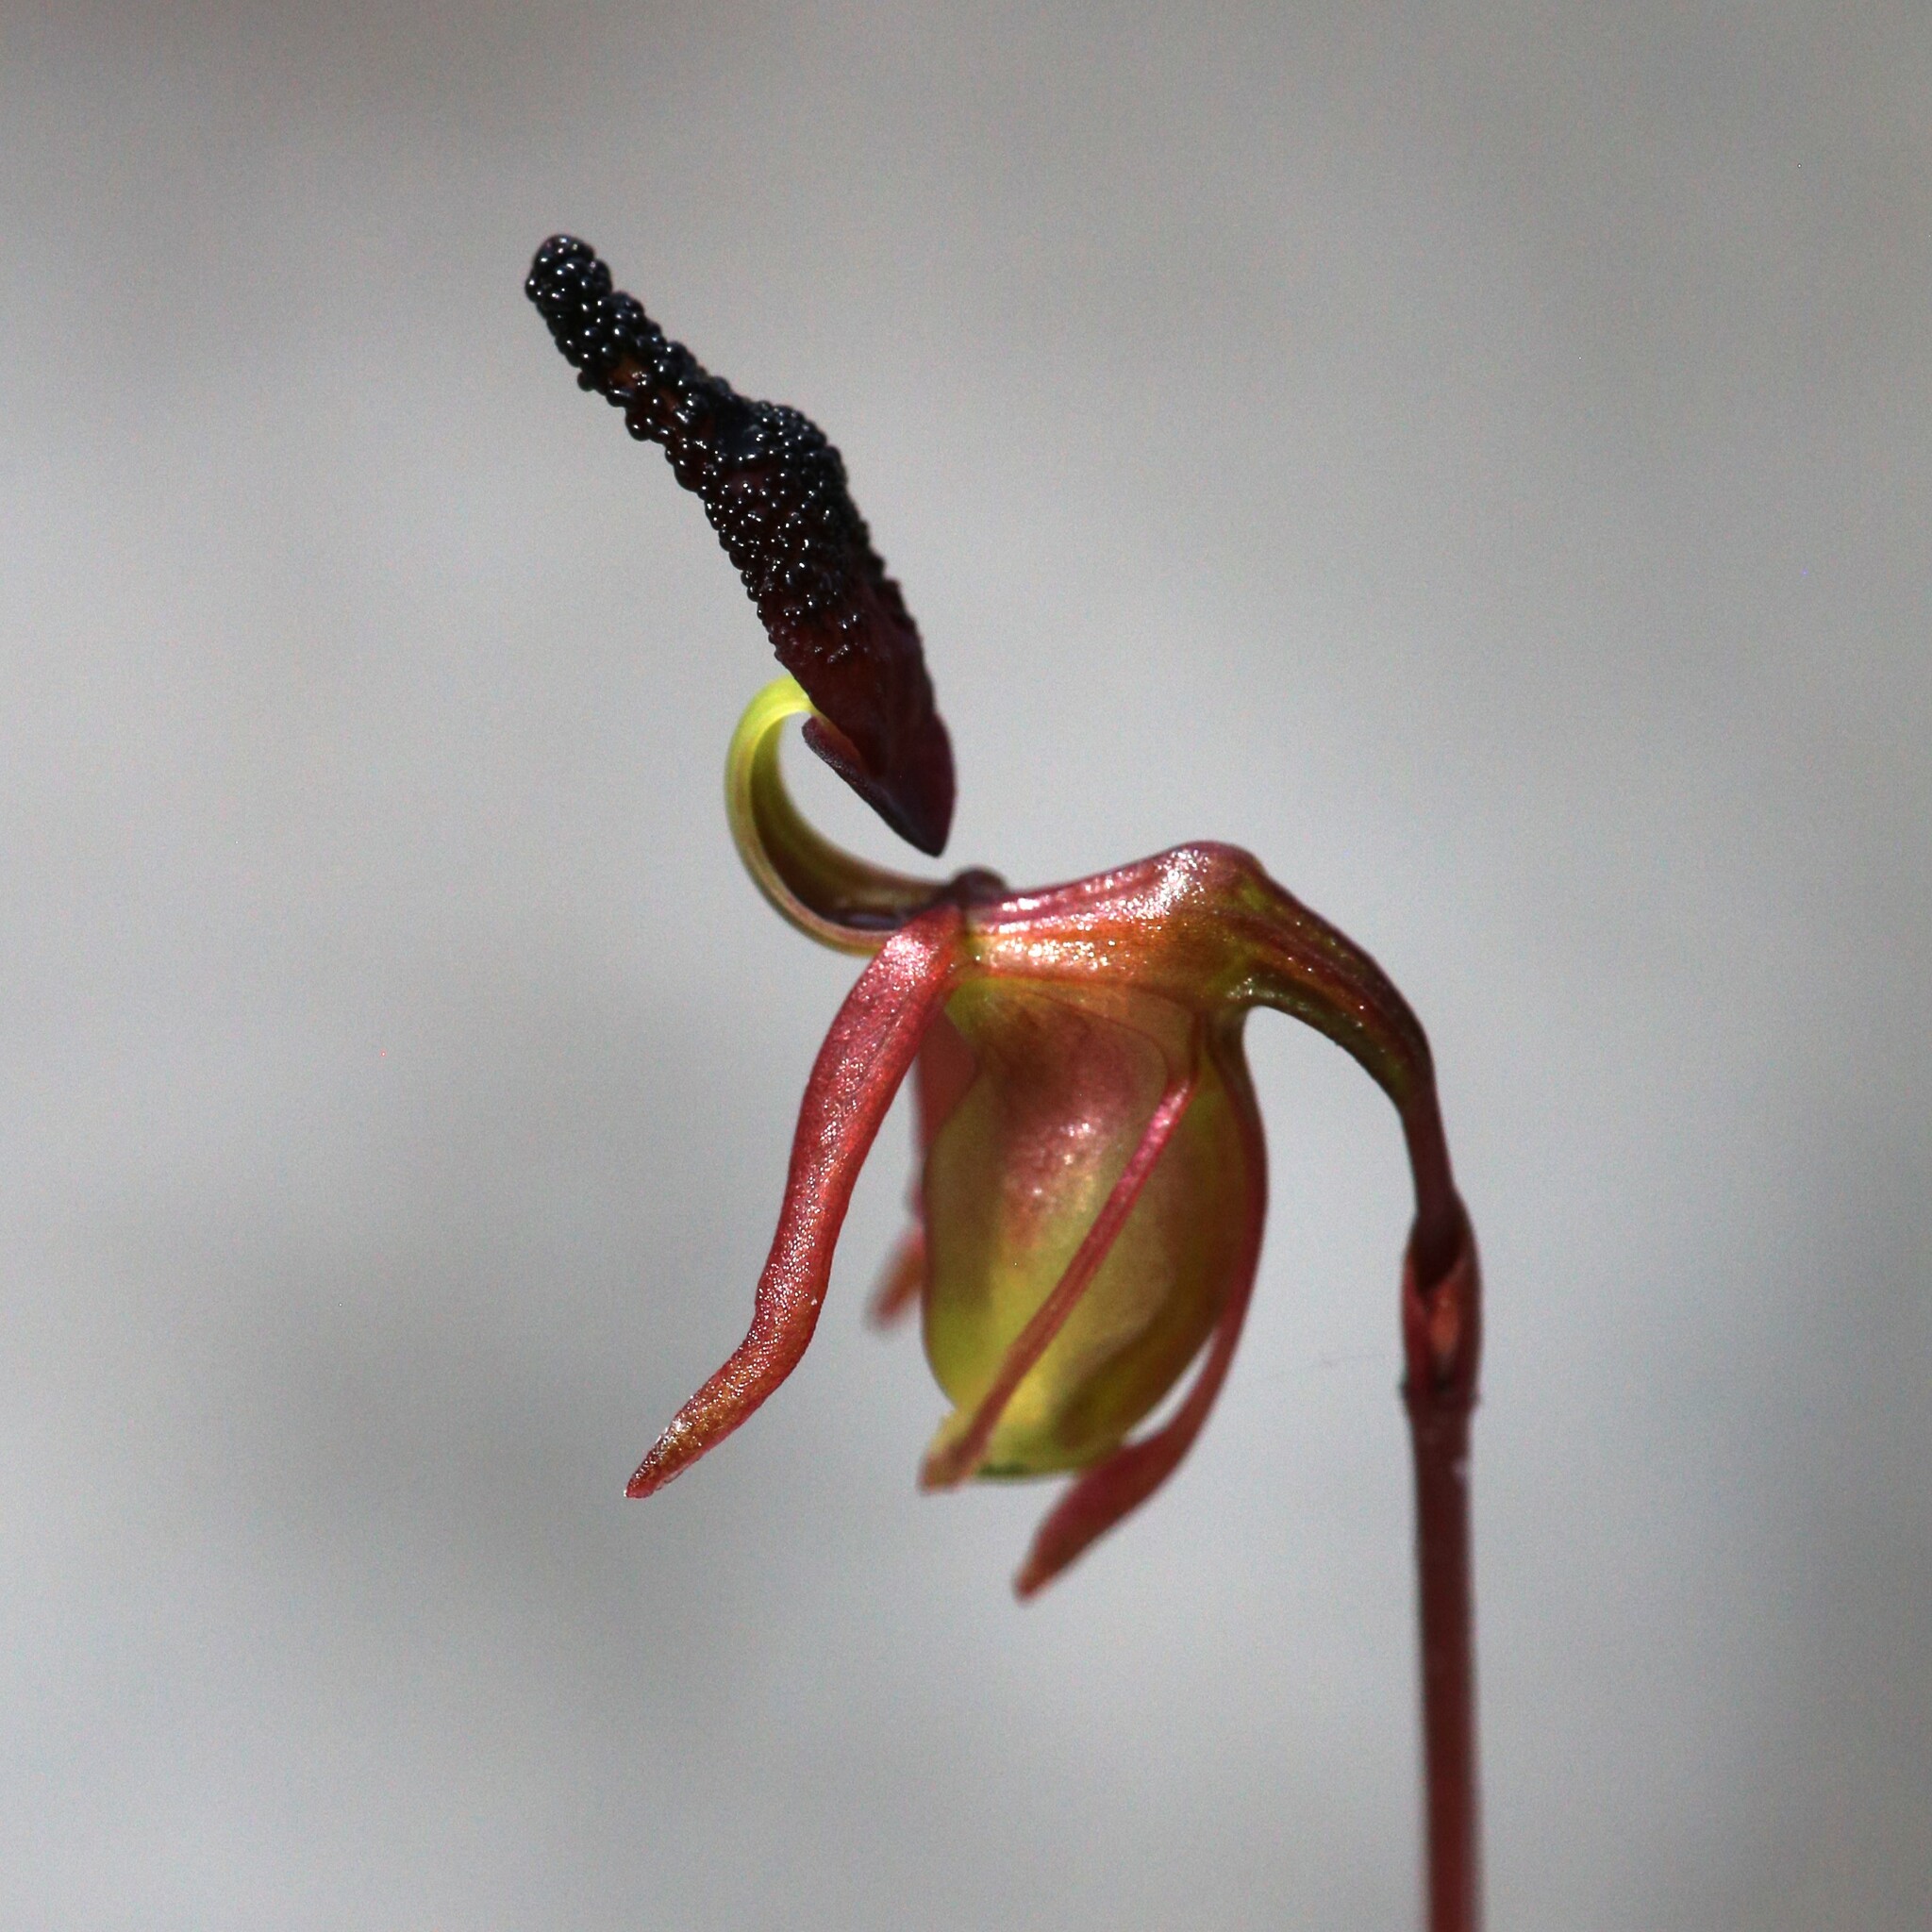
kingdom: Plantae
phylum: Tracheophyta
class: Liliopsida
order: Asparagales
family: Orchidaceae
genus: Caleana
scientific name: Caleana nigrita
